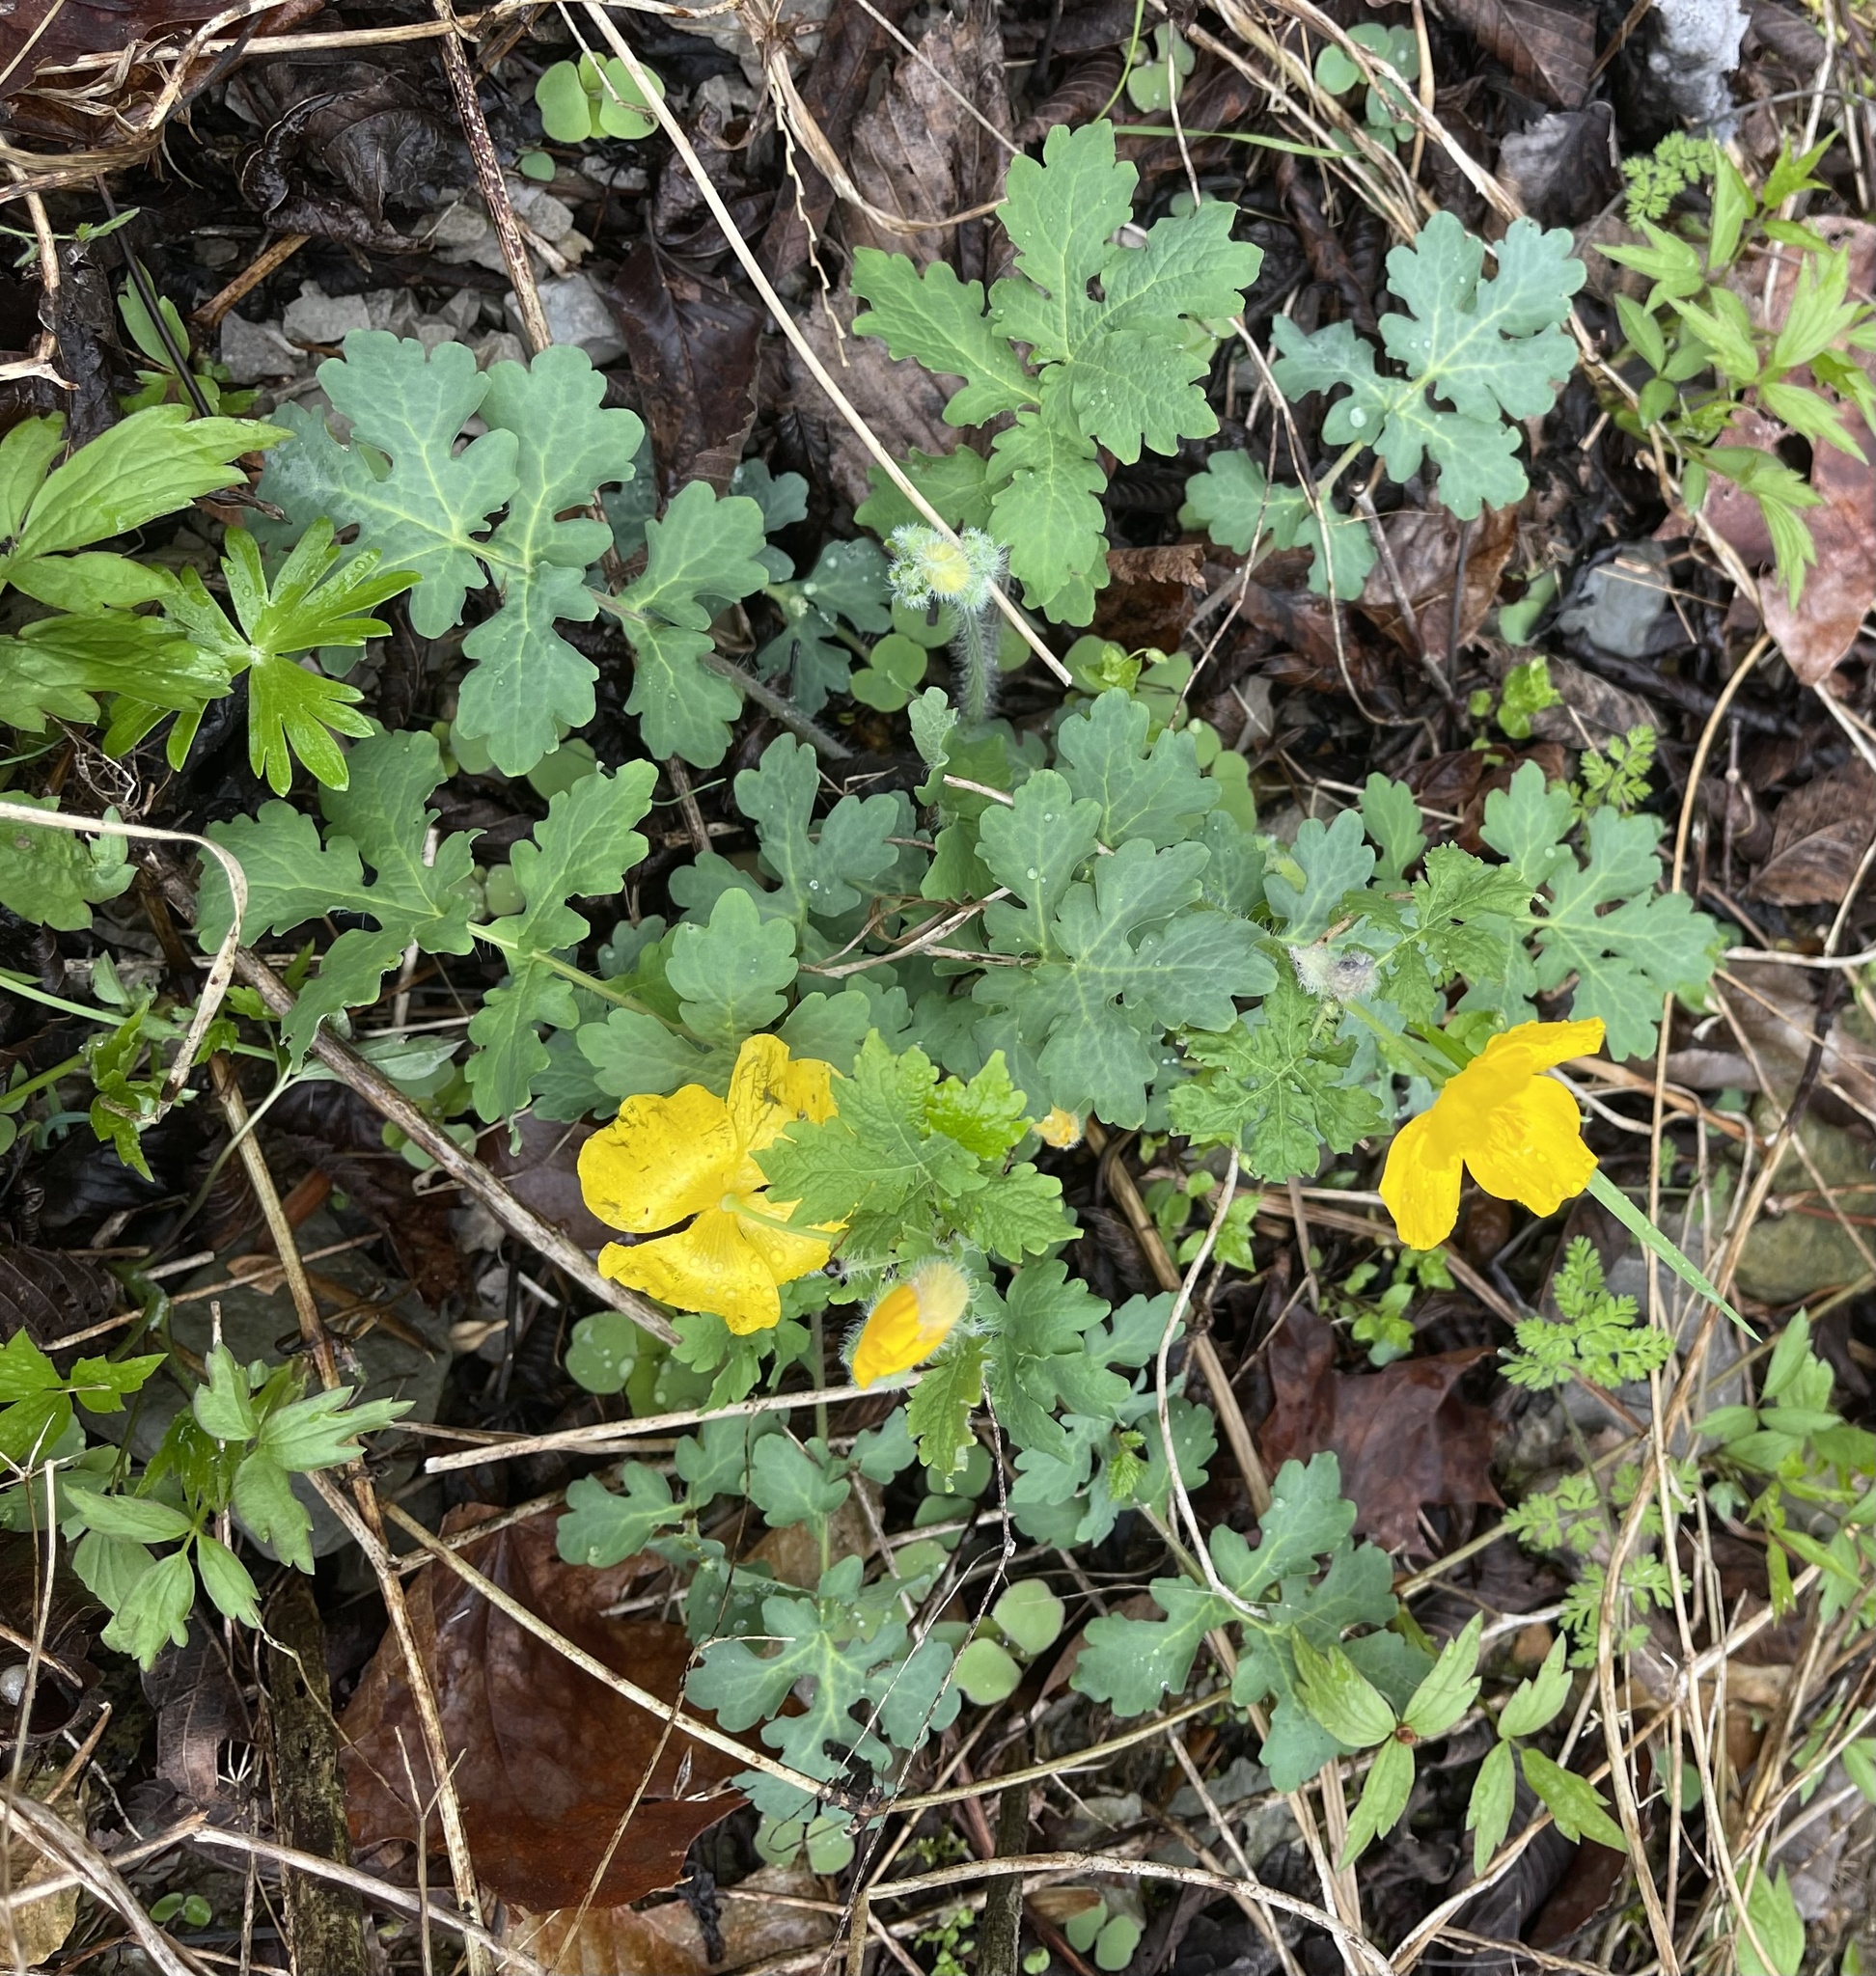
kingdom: Plantae
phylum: Tracheophyta
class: Magnoliopsida
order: Ranunculales
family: Papaveraceae
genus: Stylophorum
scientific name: Stylophorum diphyllum
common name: Celandine poppy
